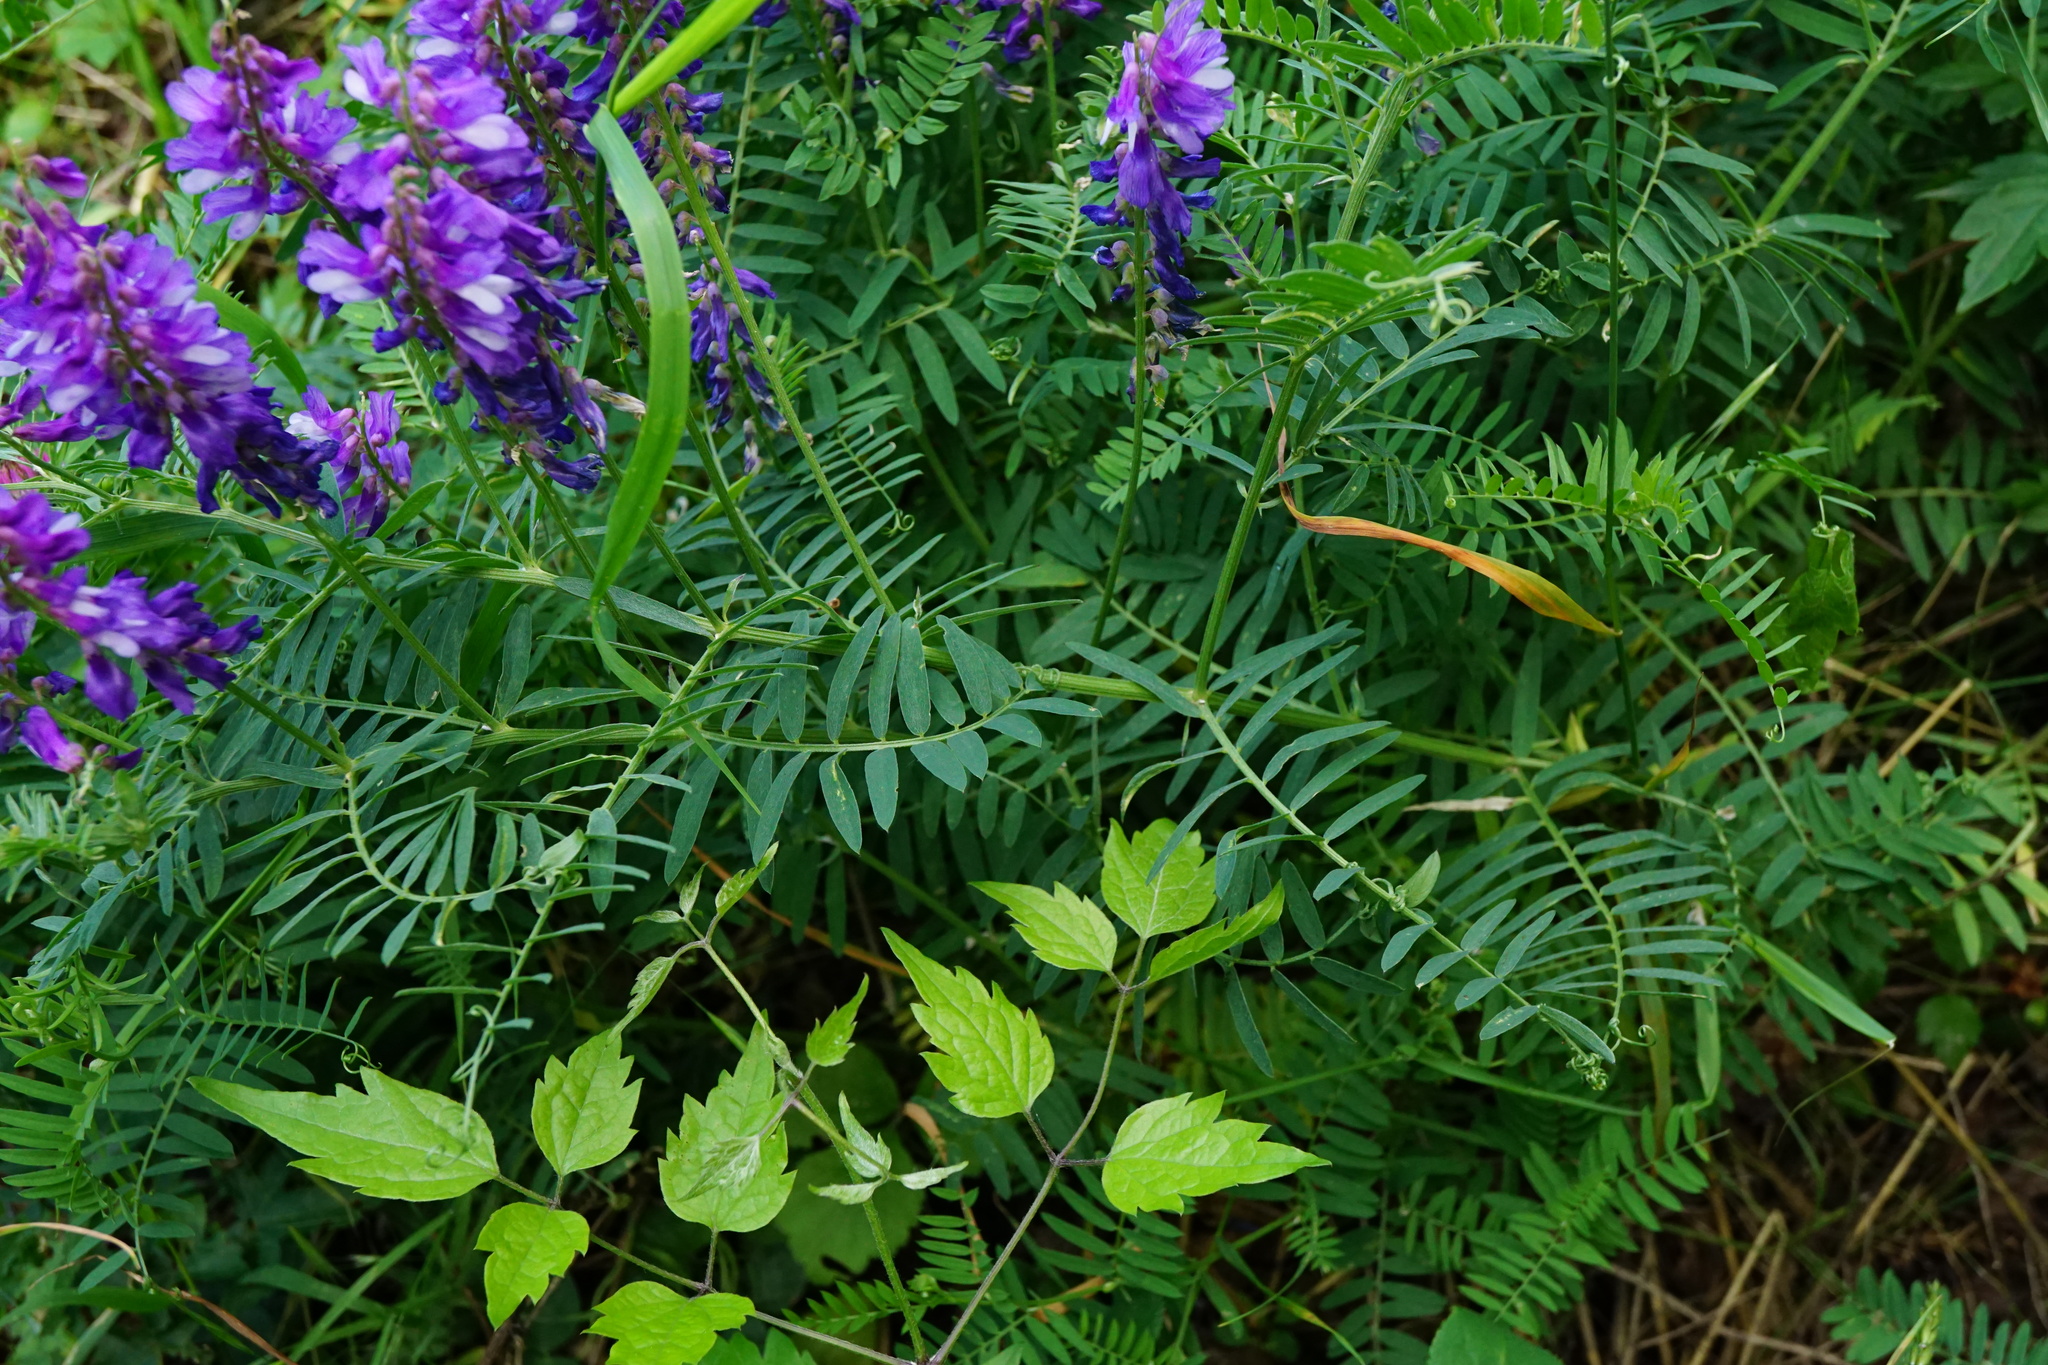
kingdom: Plantae
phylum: Tracheophyta
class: Magnoliopsida
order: Fabales
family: Fabaceae
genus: Vicia
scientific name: Vicia tenuifolia
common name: Fine-leaved vetch
